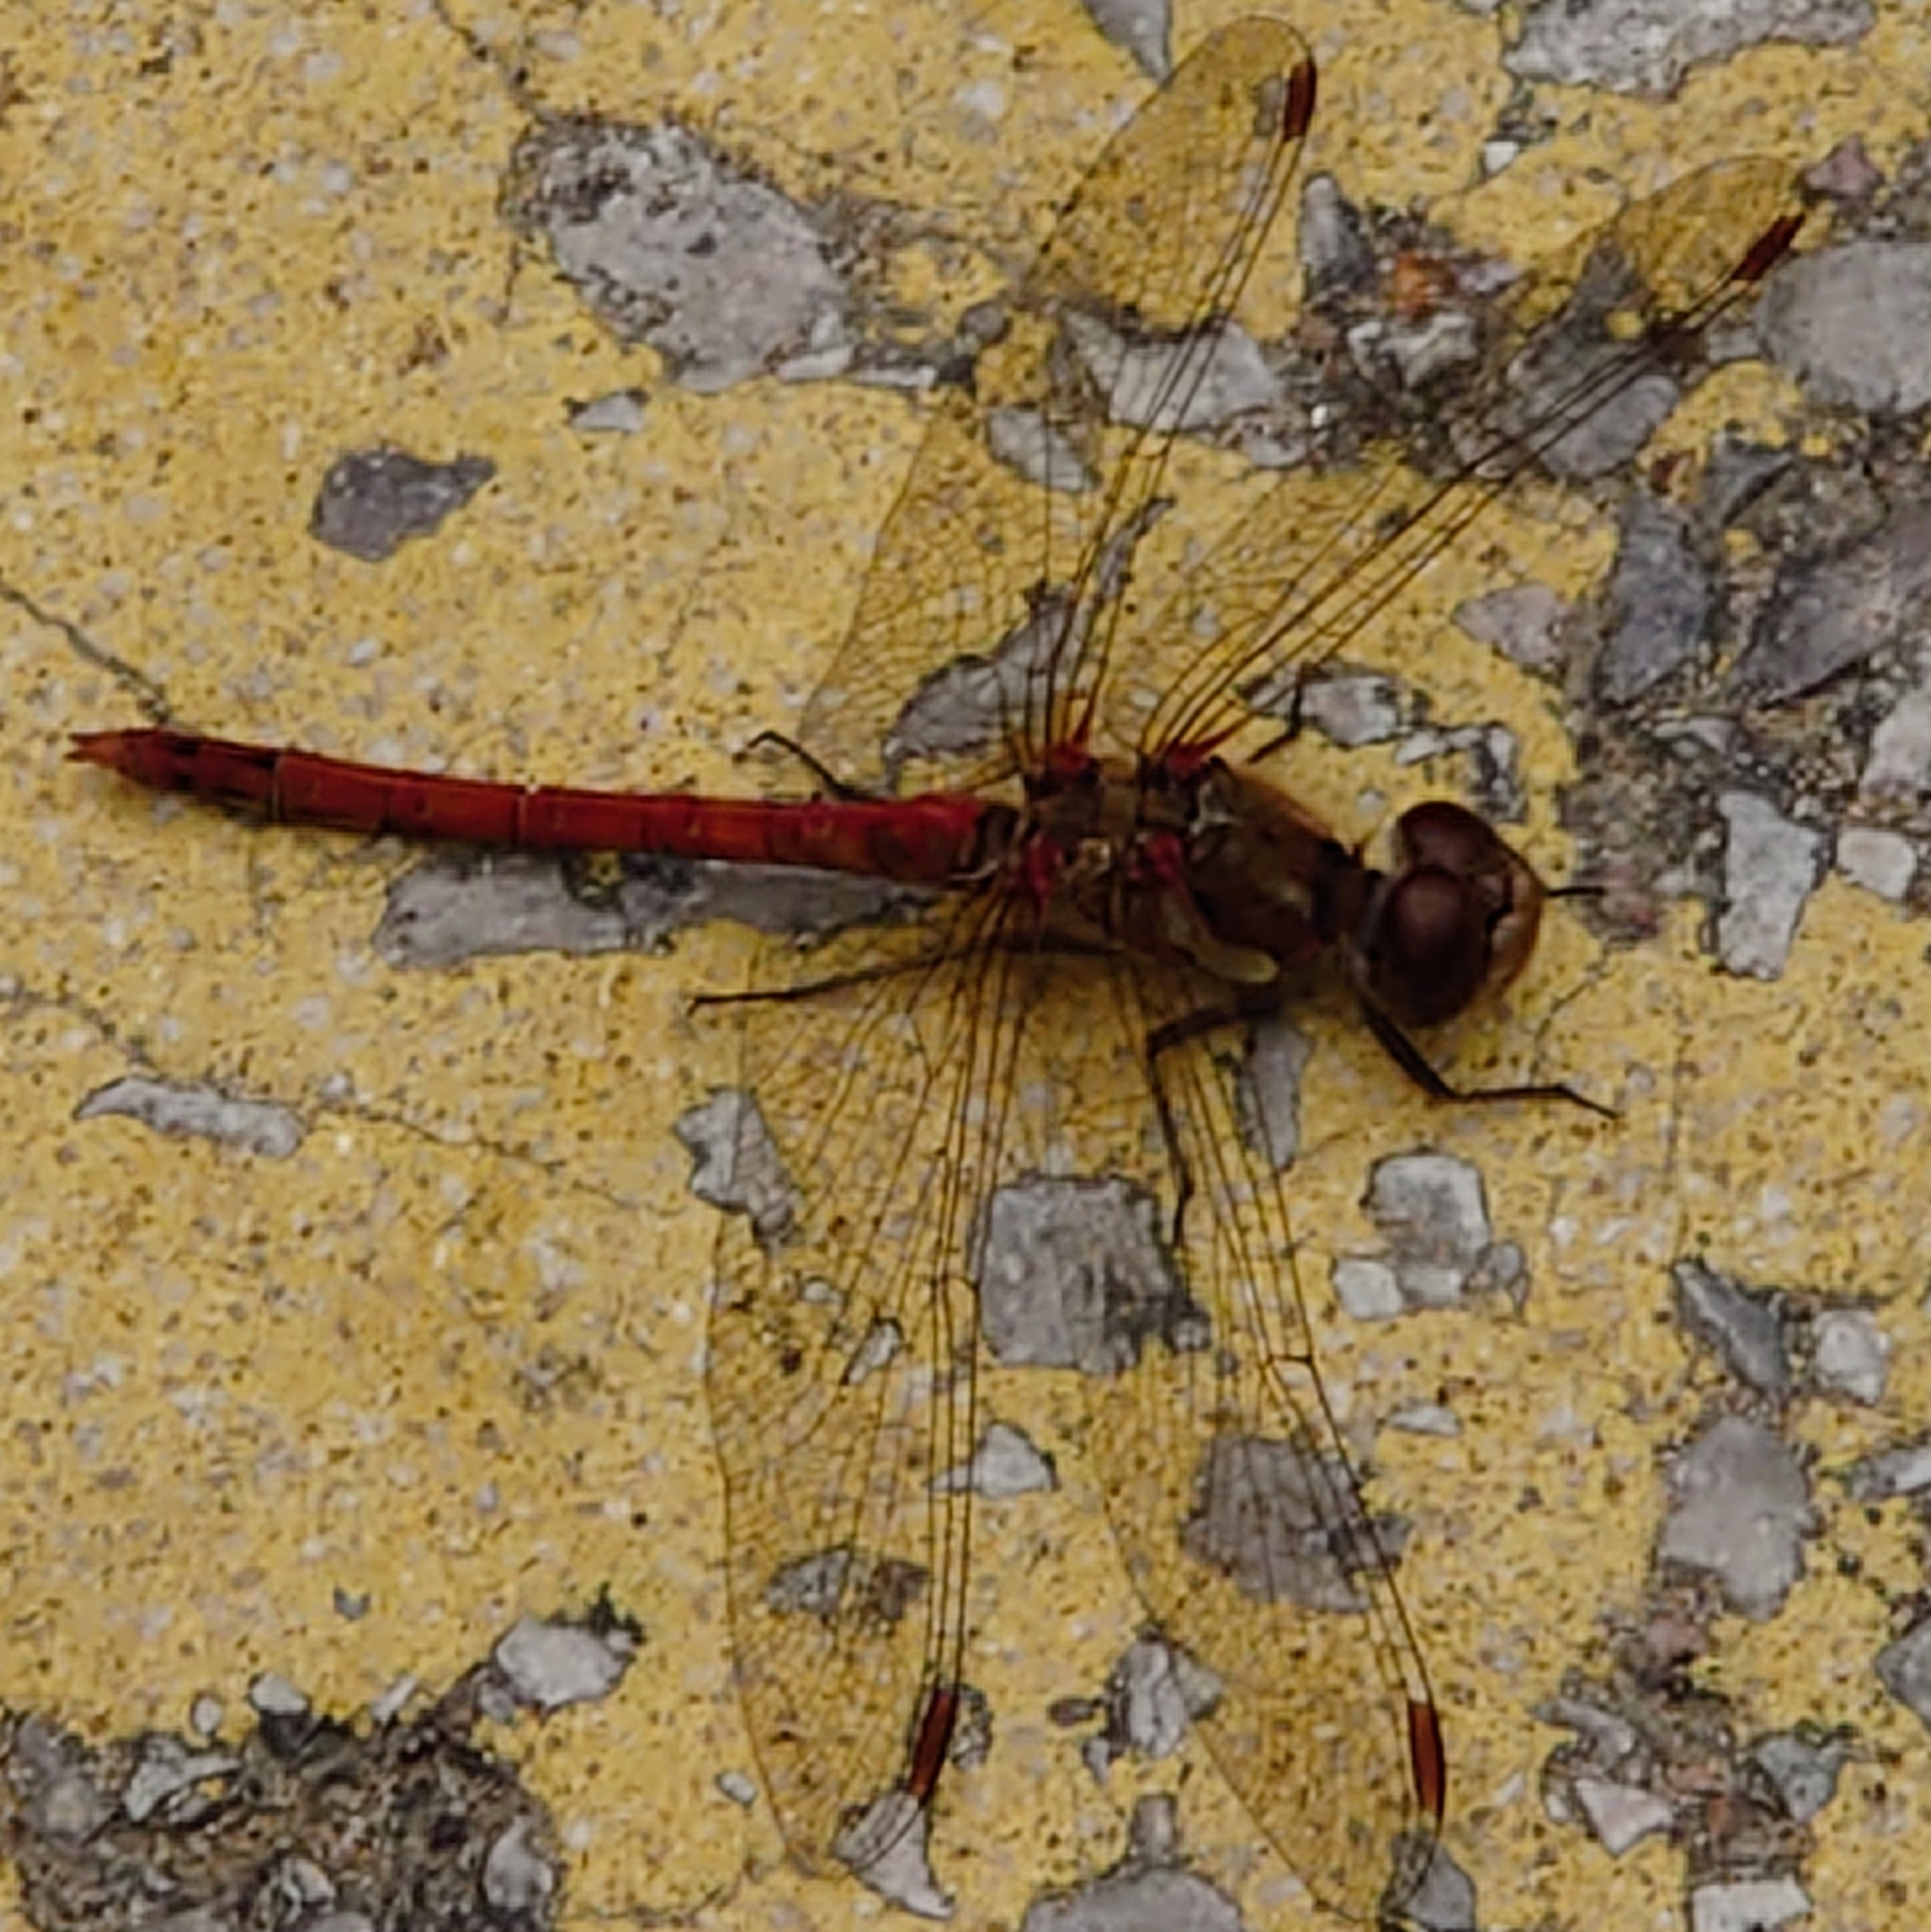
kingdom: Animalia
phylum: Arthropoda
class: Insecta
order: Odonata
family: Libellulidae
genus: Sympetrum
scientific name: Sympetrum striolatum
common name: Common darter
